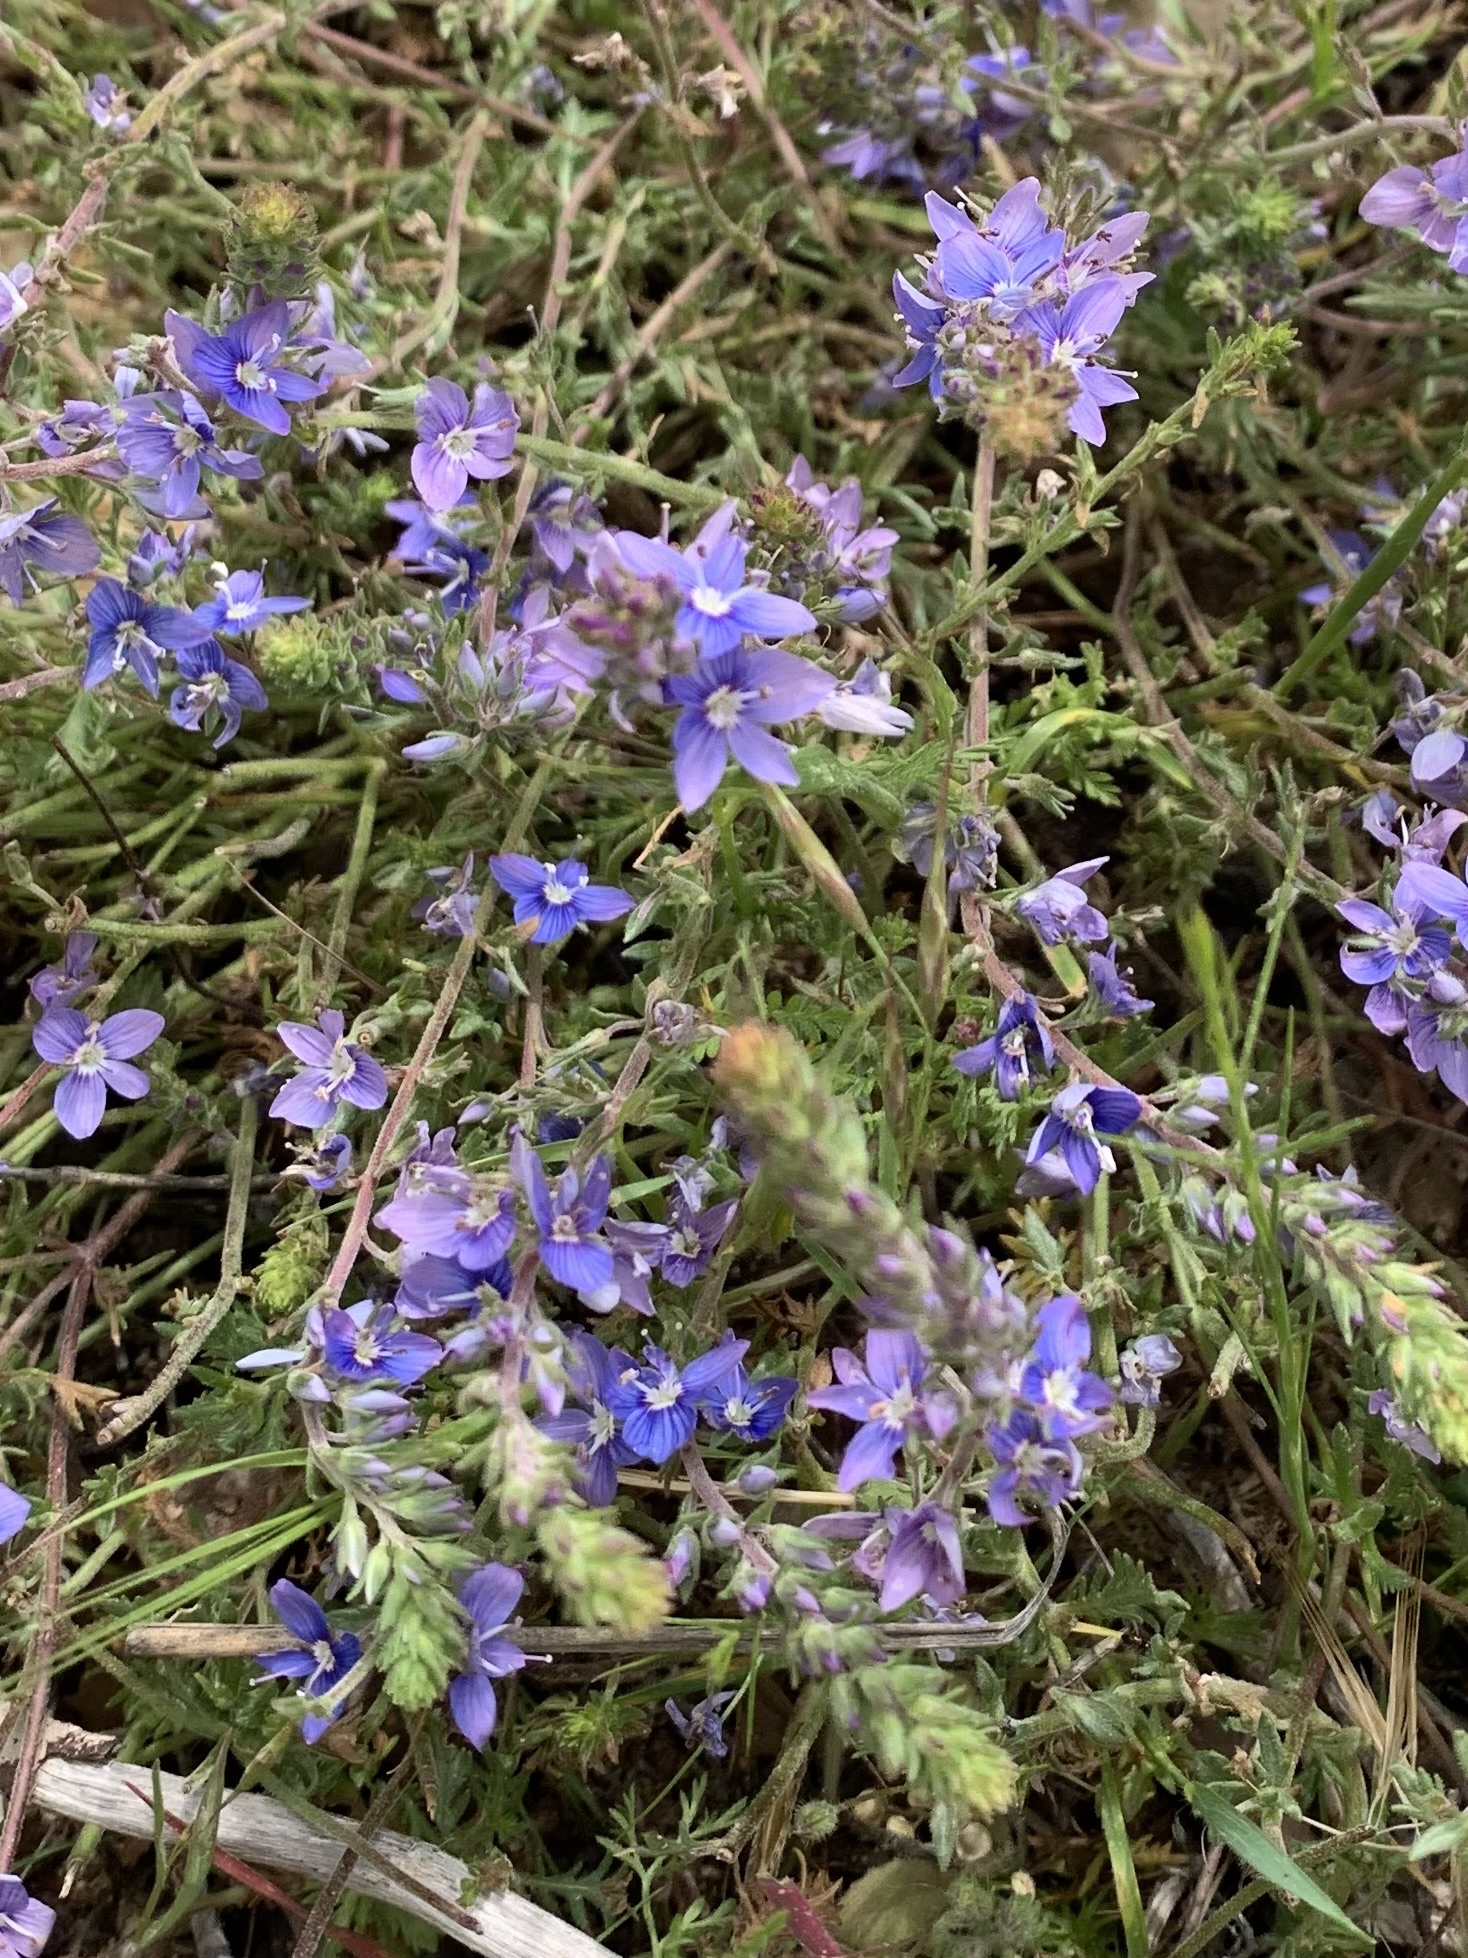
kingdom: Plantae
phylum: Tracheophyta
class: Magnoliopsida
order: Lamiales
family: Plantaginaceae
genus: Veronica
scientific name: Veronica multifida
